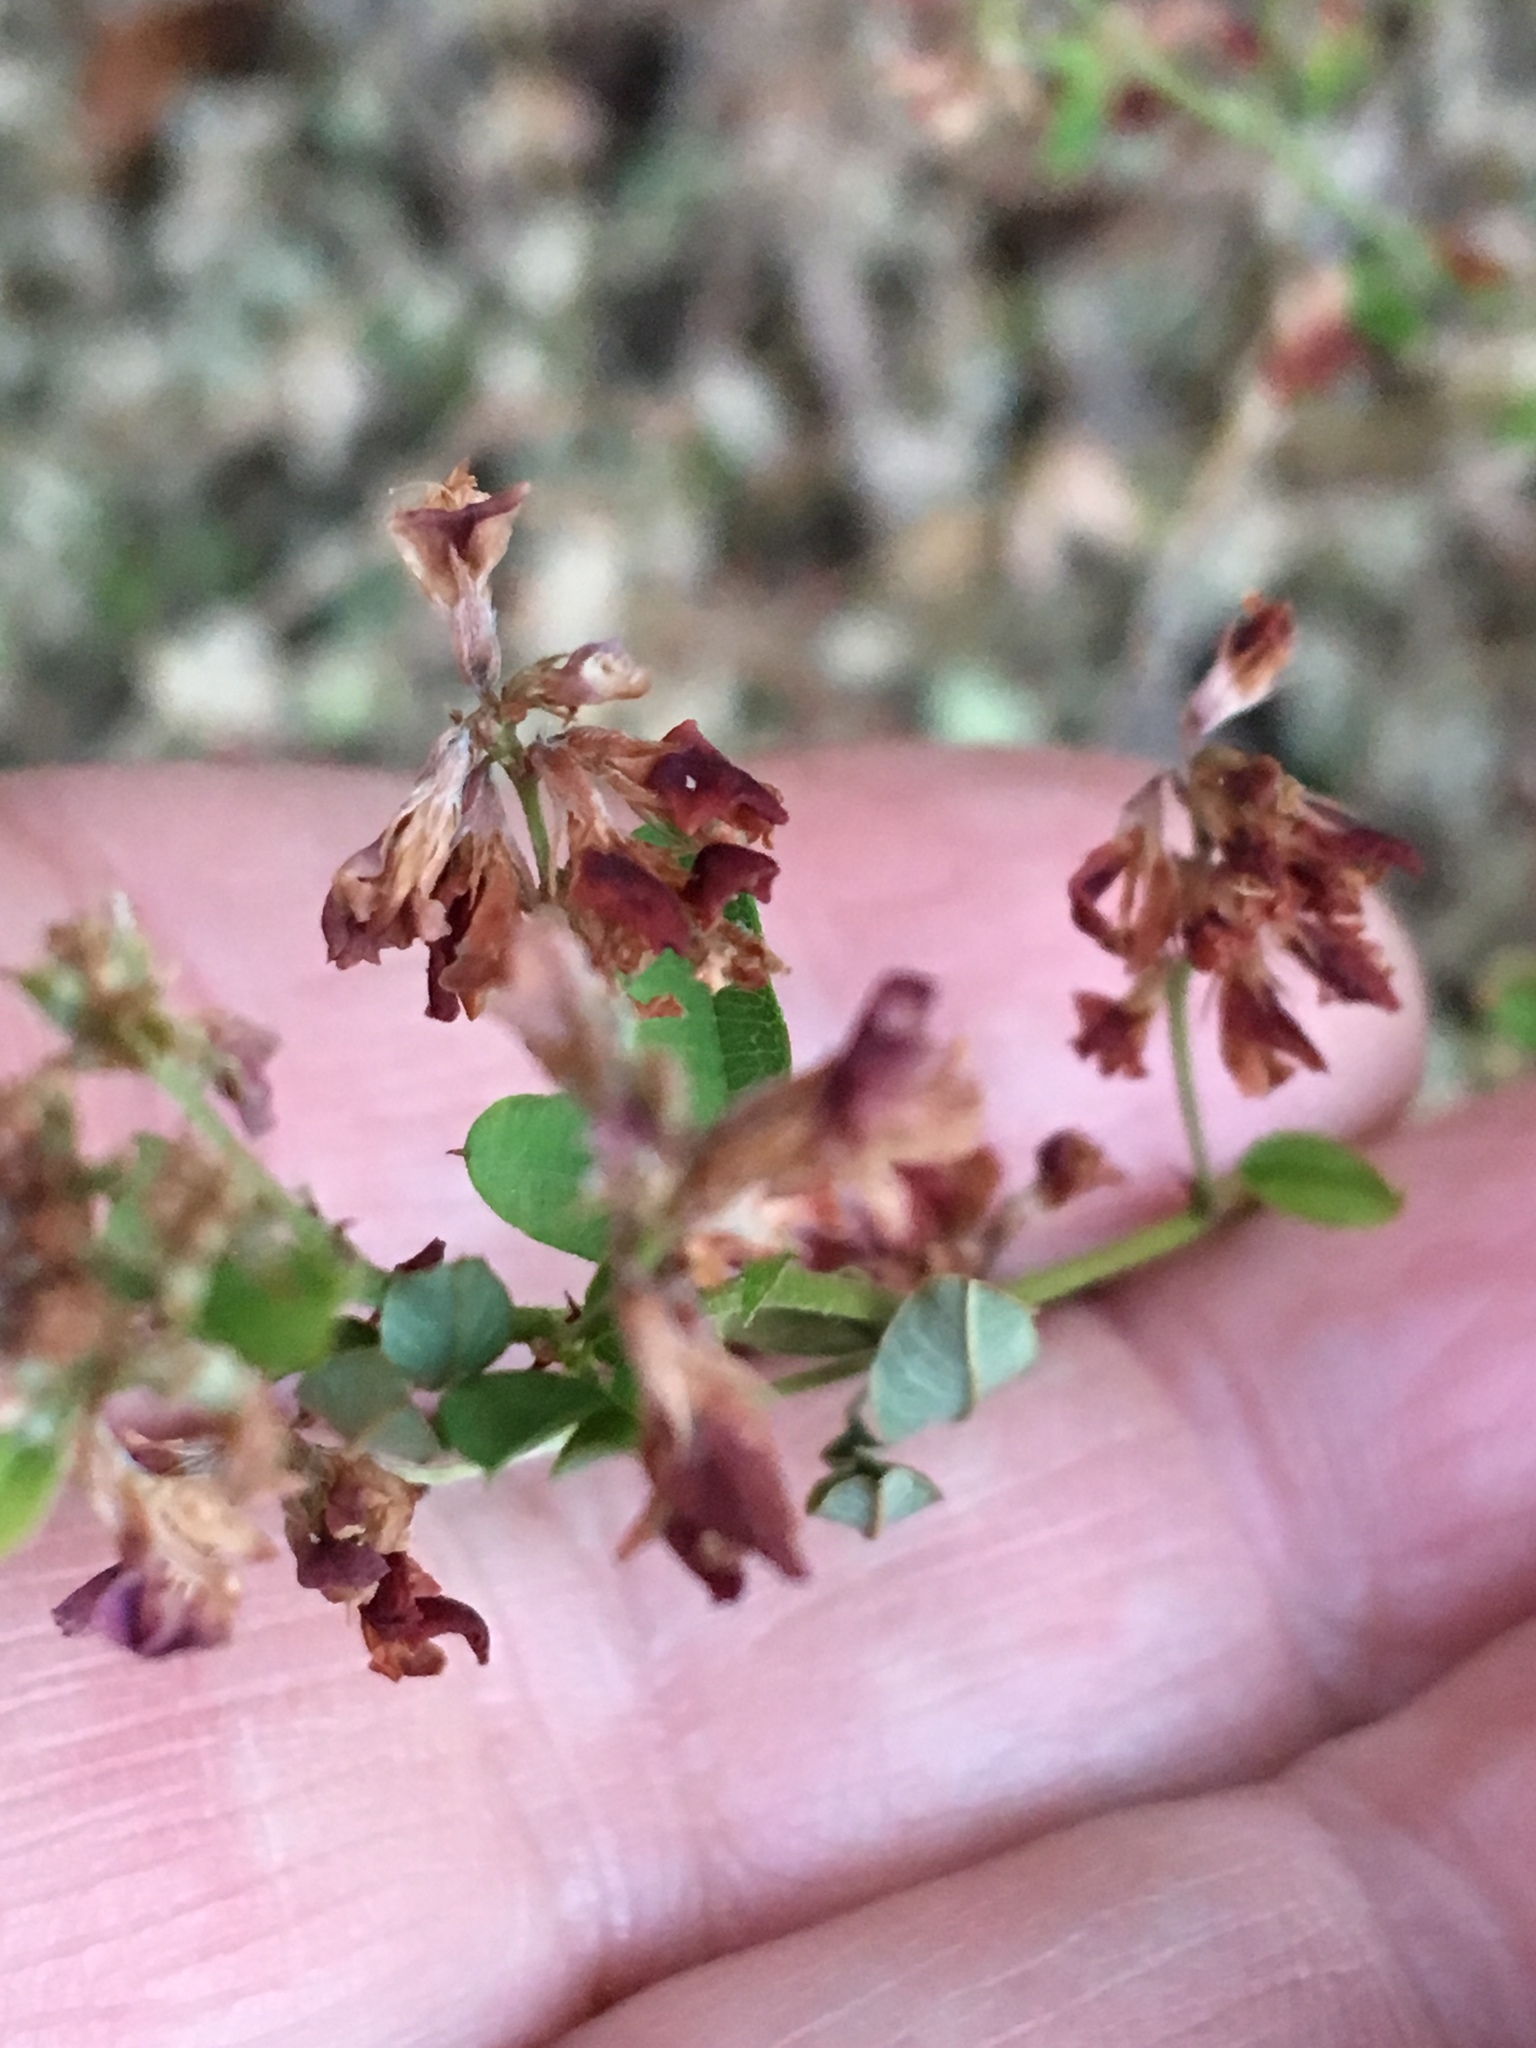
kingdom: Plantae
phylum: Tracheophyta
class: Magnoliopsida
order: Fabales
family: Fabaceae
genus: Lespedeza
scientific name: Lespedeza procumbens
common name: Downy trailing bush-clover
